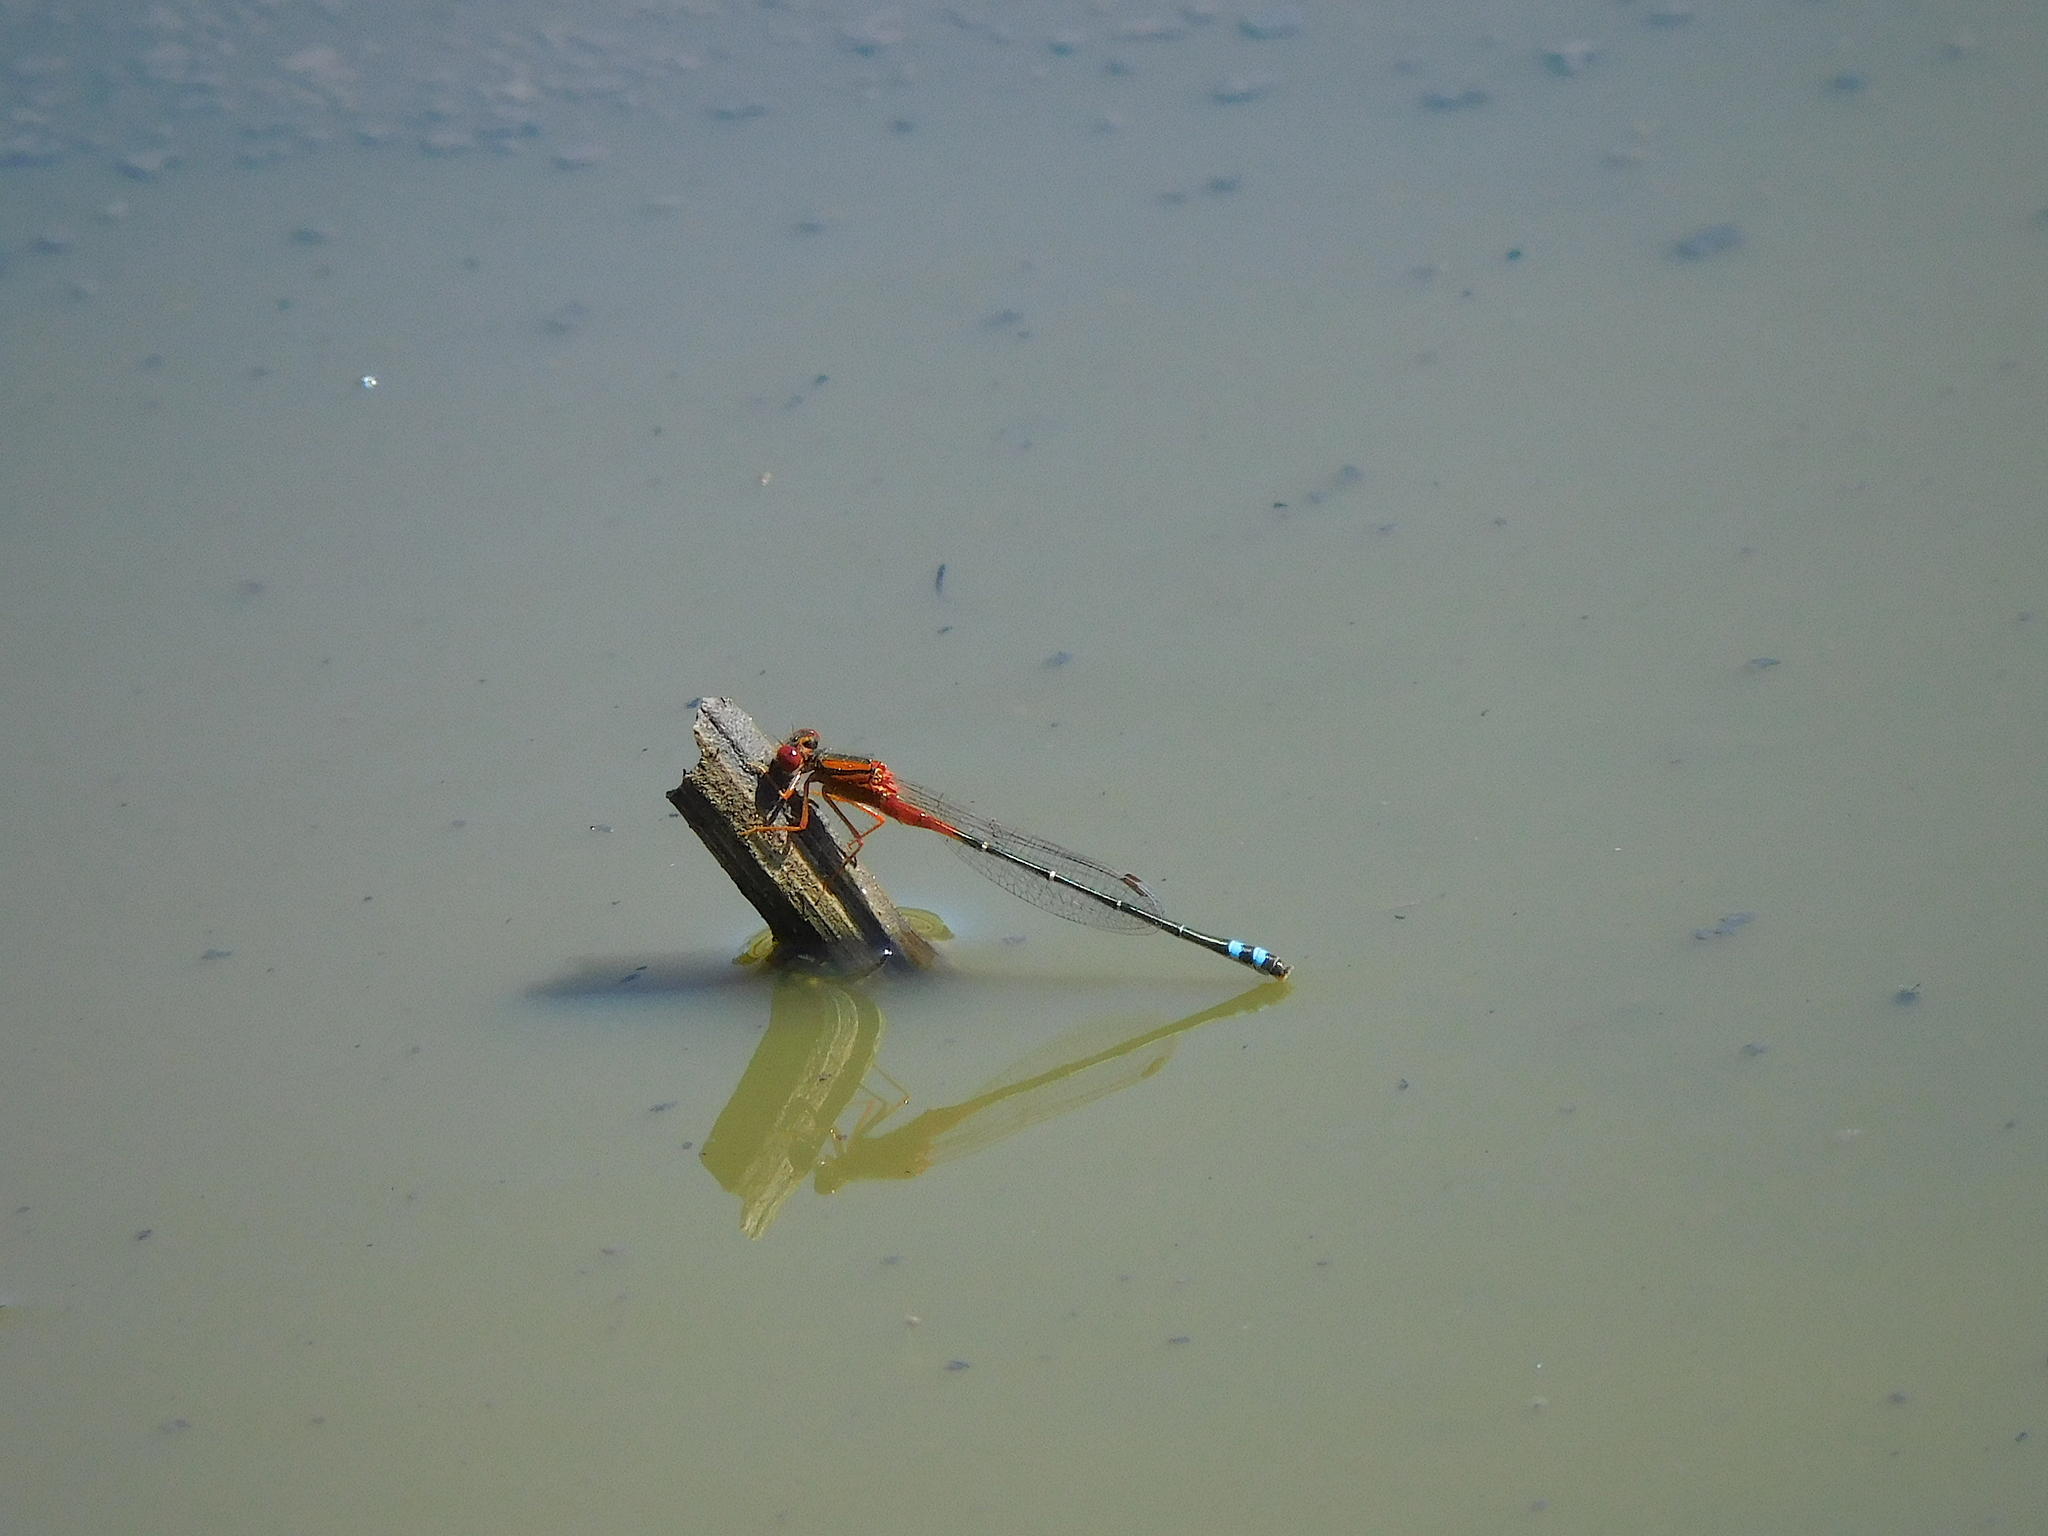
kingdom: Animalia
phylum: Arthropoda
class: Insecta
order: Odonata
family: Coenagrionidae
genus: Xanthagrion
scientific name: Xanthagrion erythroneurum
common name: Red and blue damsel
